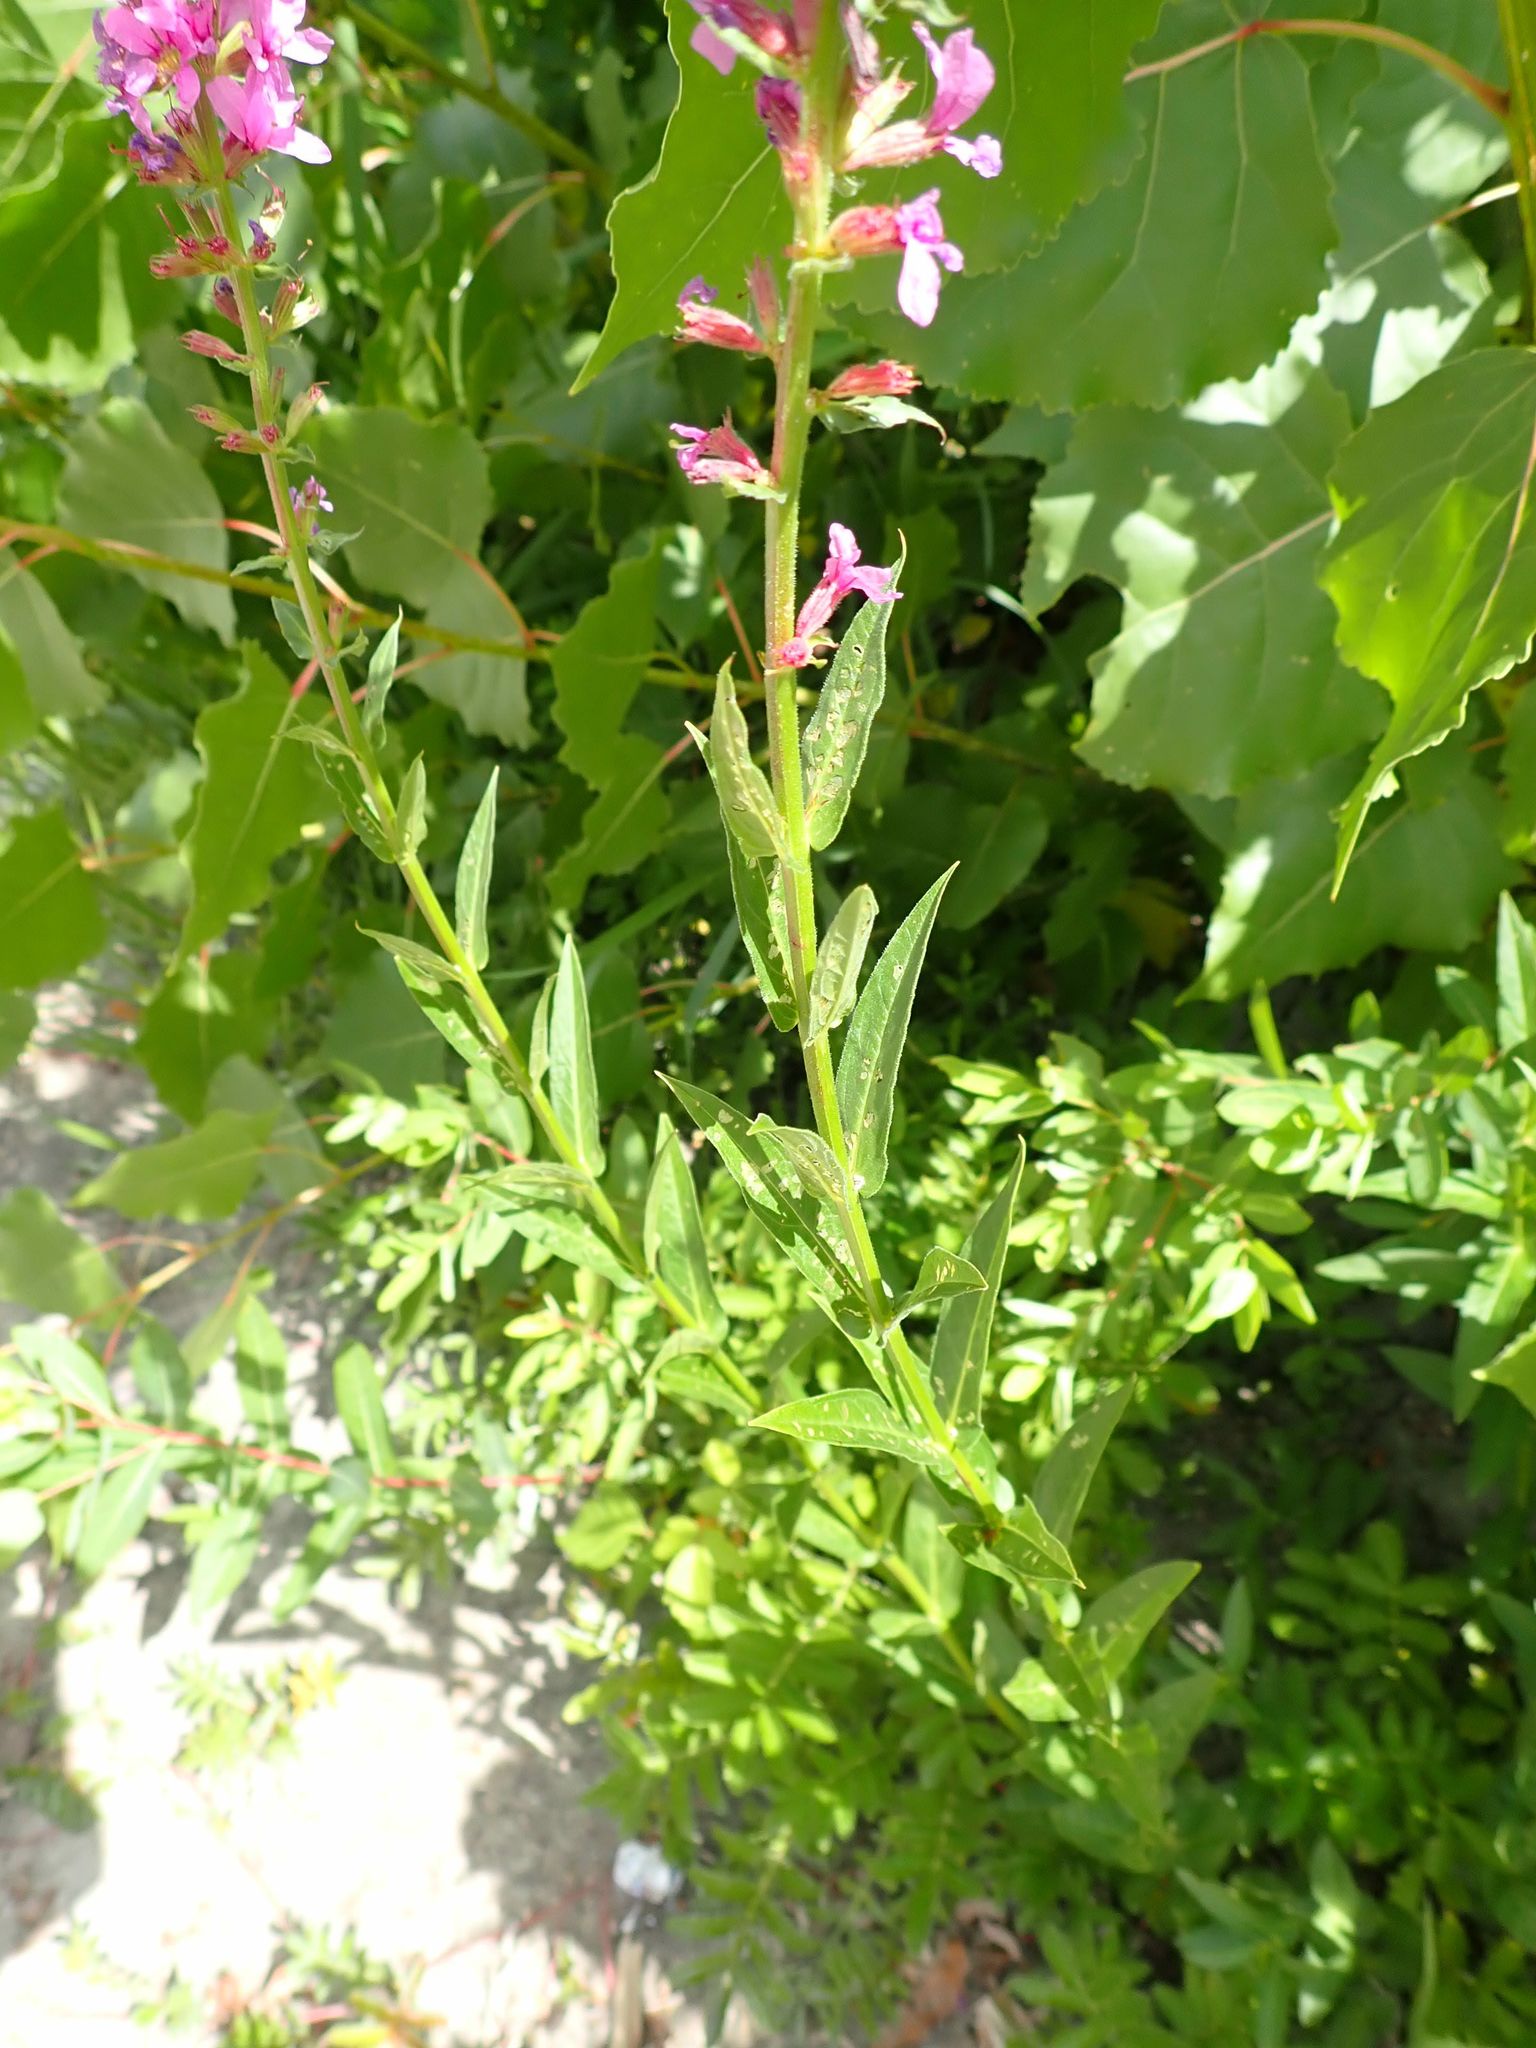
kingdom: Plantae
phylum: Tracheophyta
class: Magnoliopsida
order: Myrtales
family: Lythraceae
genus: Lythrum
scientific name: Lythrum salicaria
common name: Purple loosestrife
